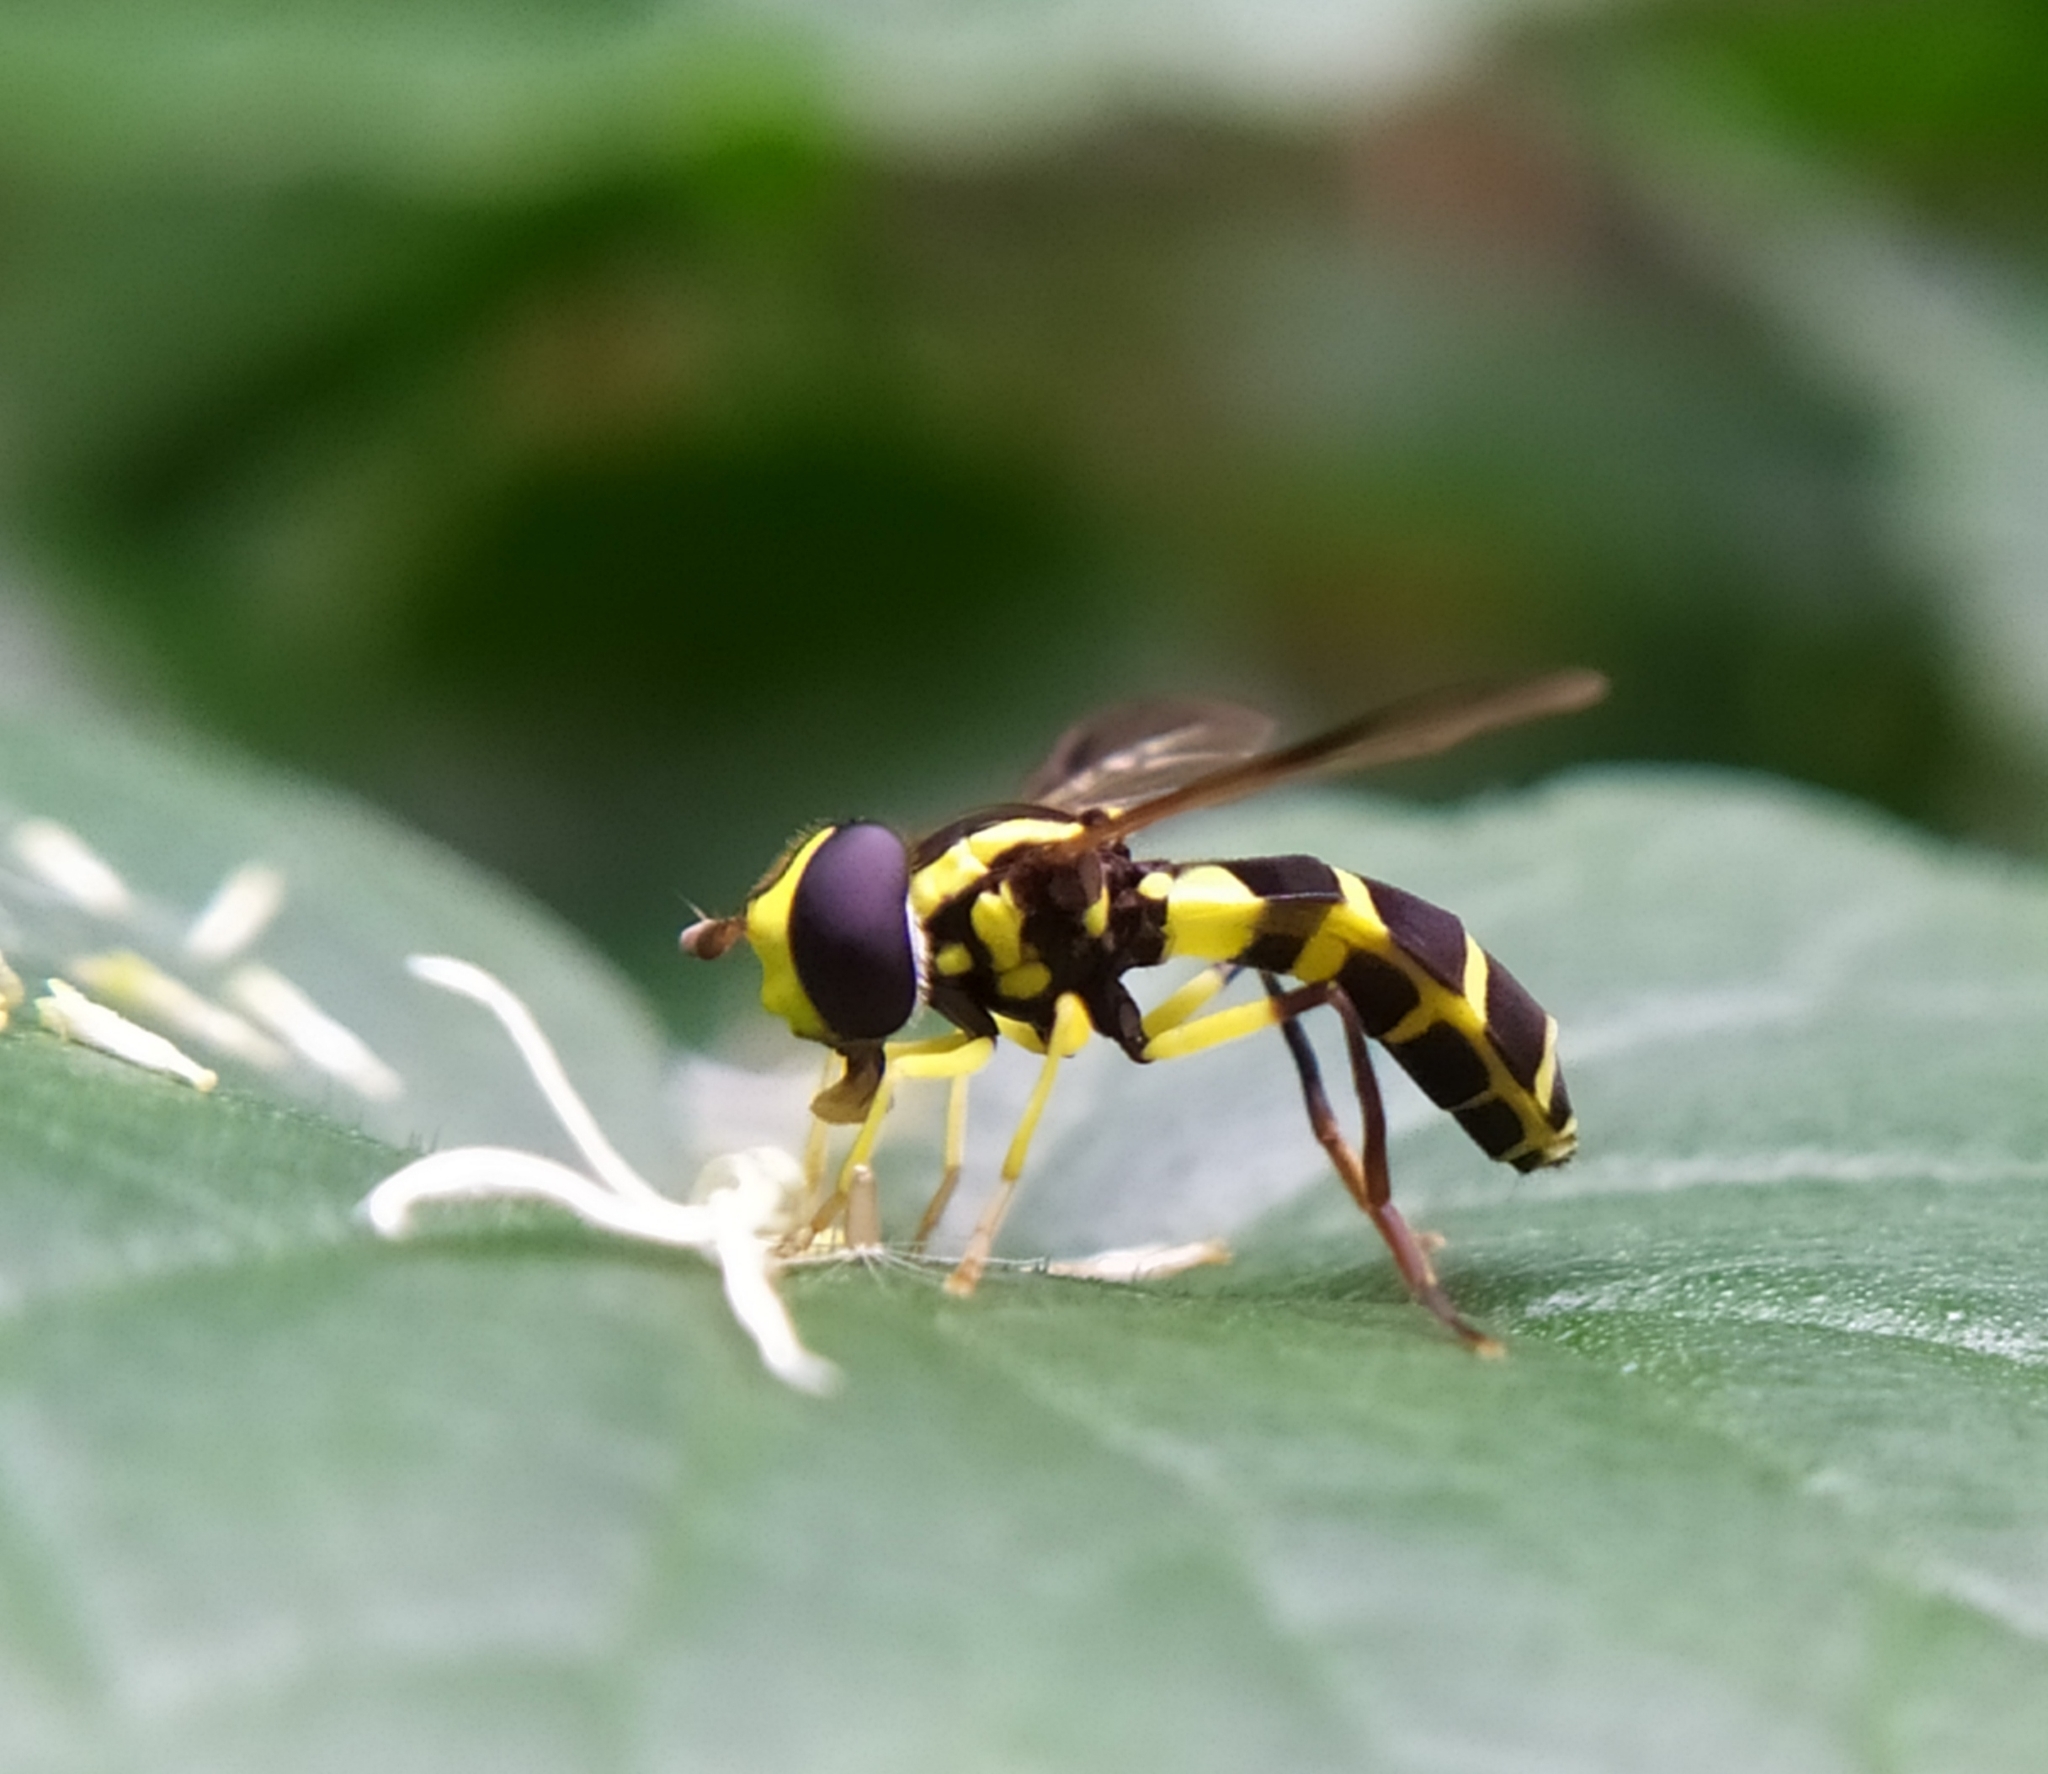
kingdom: Animalia
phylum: Arthropoda
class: Insecta
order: Diptera
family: Syrphidae
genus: Philhelius
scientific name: Philhelius dives
